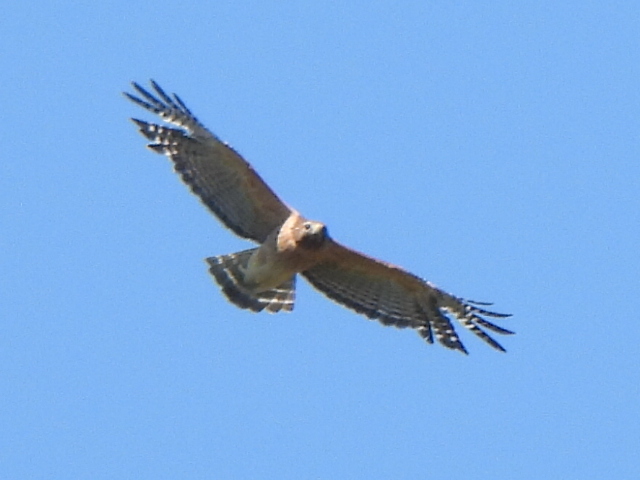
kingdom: Animalia
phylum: Chordata
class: Aves
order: Accipitriformes
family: Accipitridae
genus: Buteo
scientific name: Buteo lineatus
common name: Red-shouldered hawk
